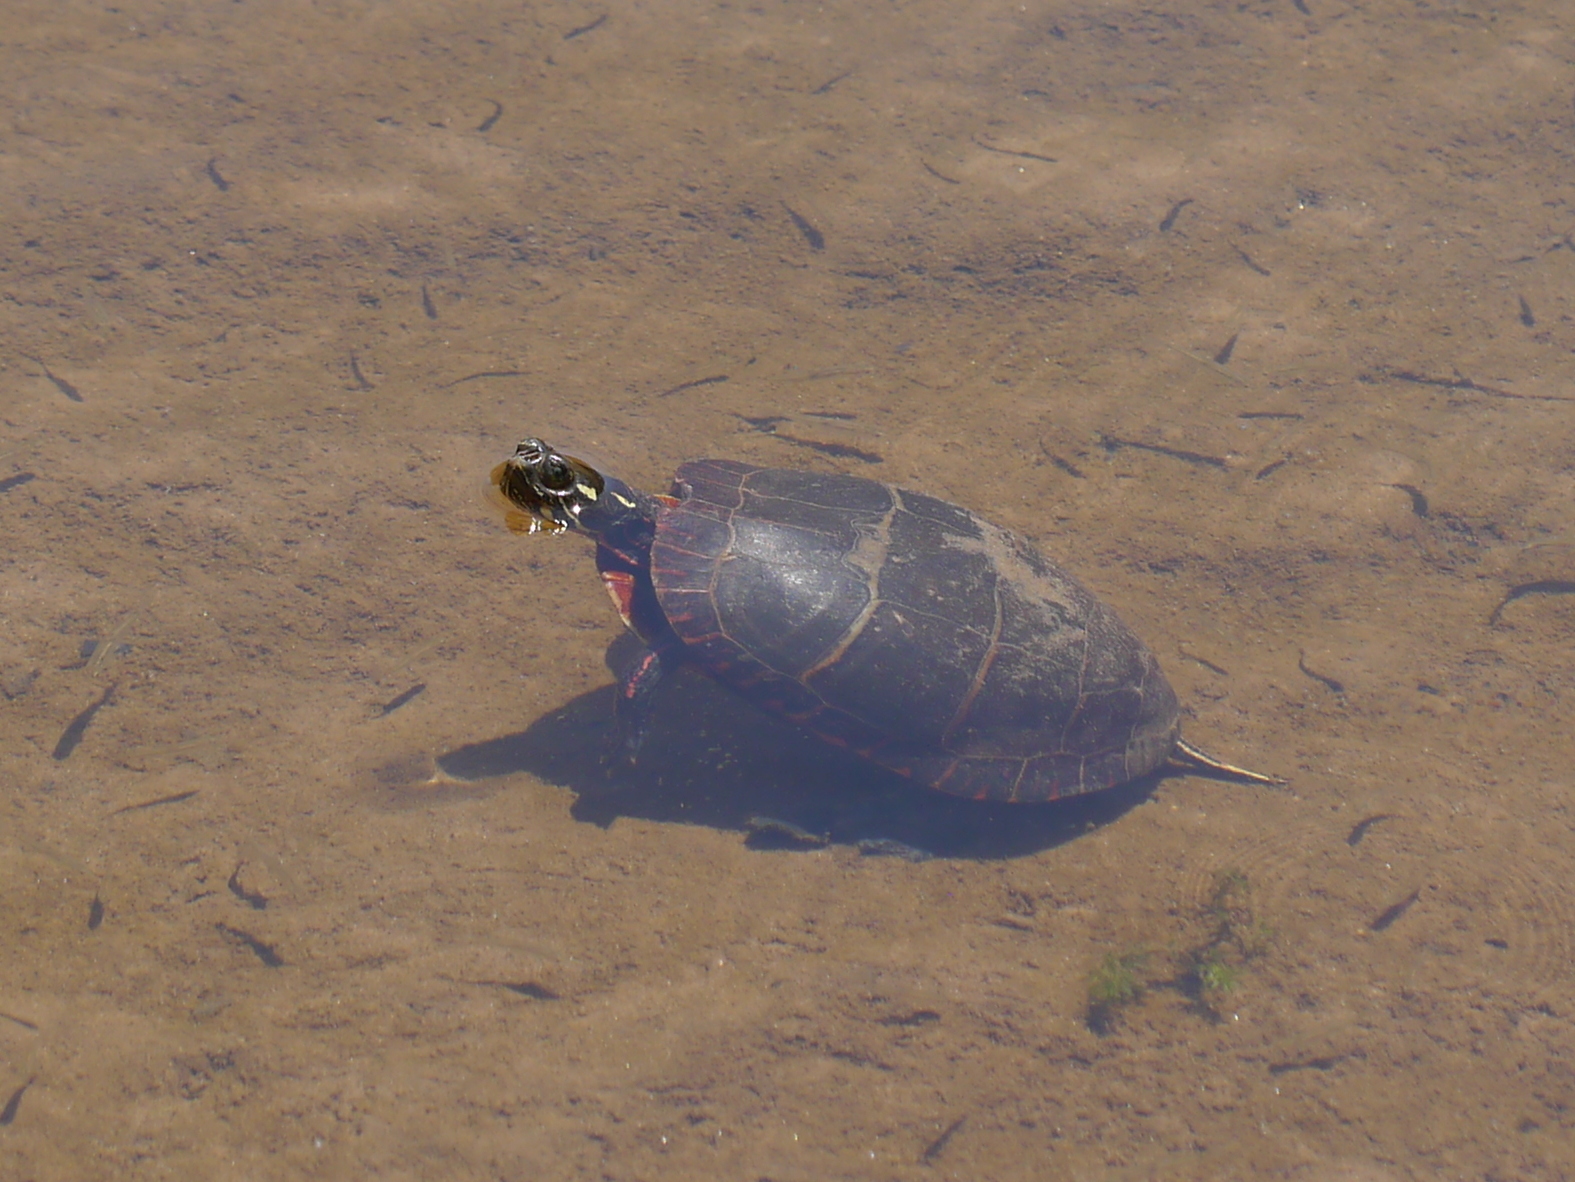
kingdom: Animalia
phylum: Chordata
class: Testudines
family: Emydidae
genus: Chrysemys
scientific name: Chrysemys picta
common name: Painted turtle
